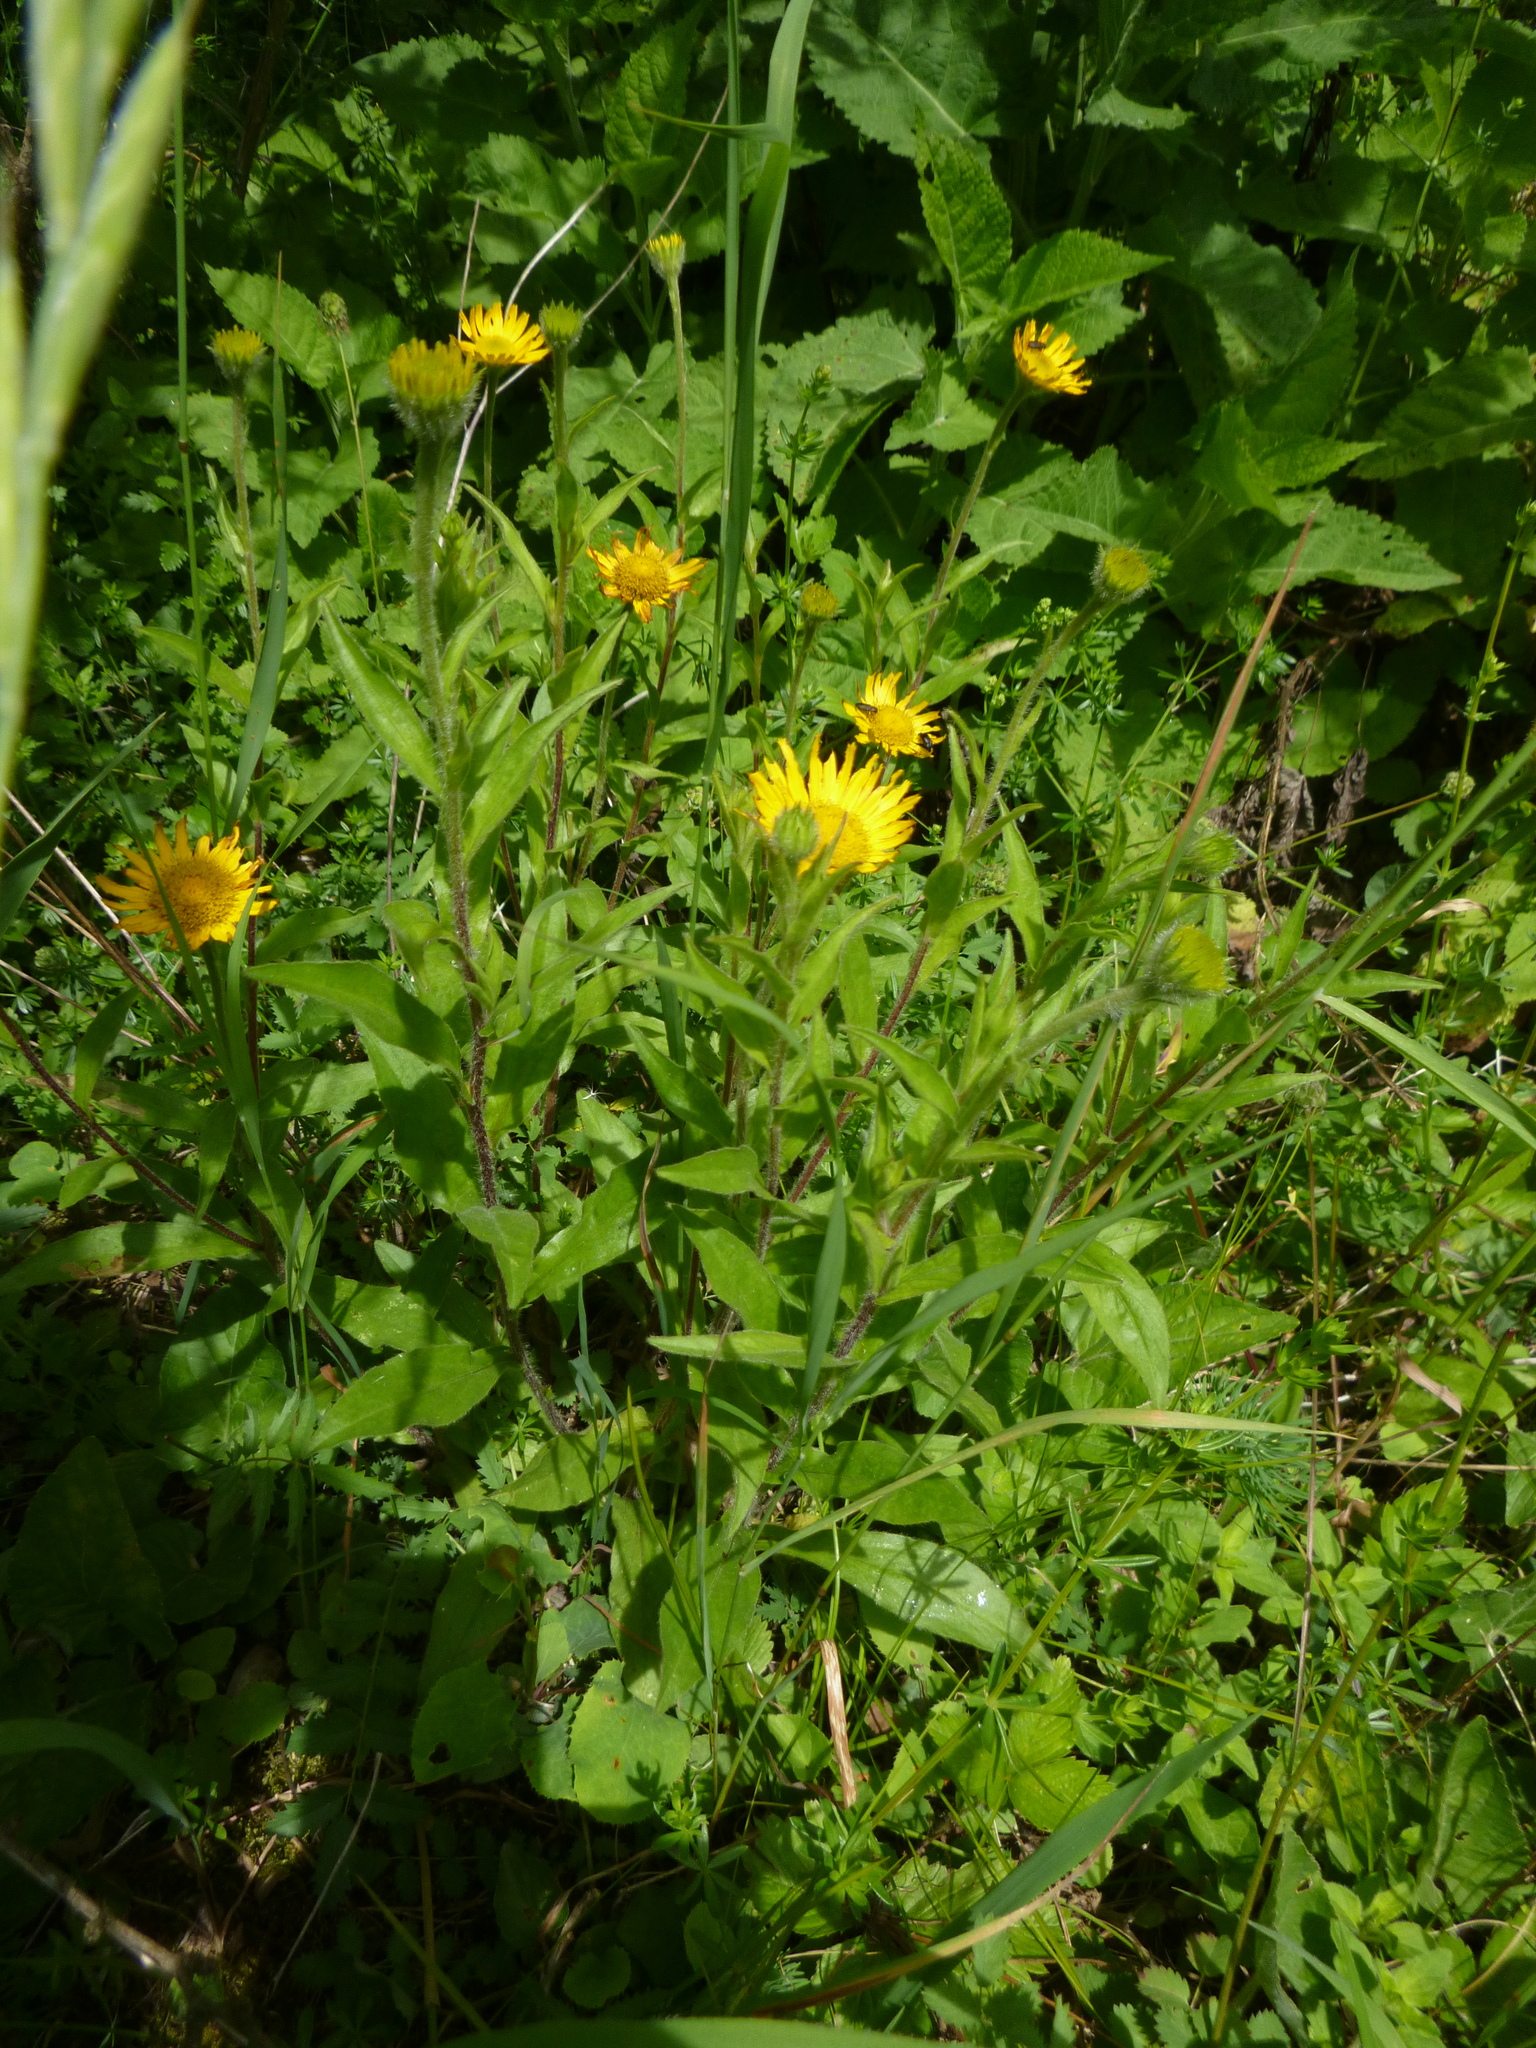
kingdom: Plantae
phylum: Tracheophyta
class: Magnoliopsida
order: Asterales
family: Asteraceae
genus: Buphthalmum
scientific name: Buphthalmum salicifolium
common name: Willow-leaved yellow-oxeye
